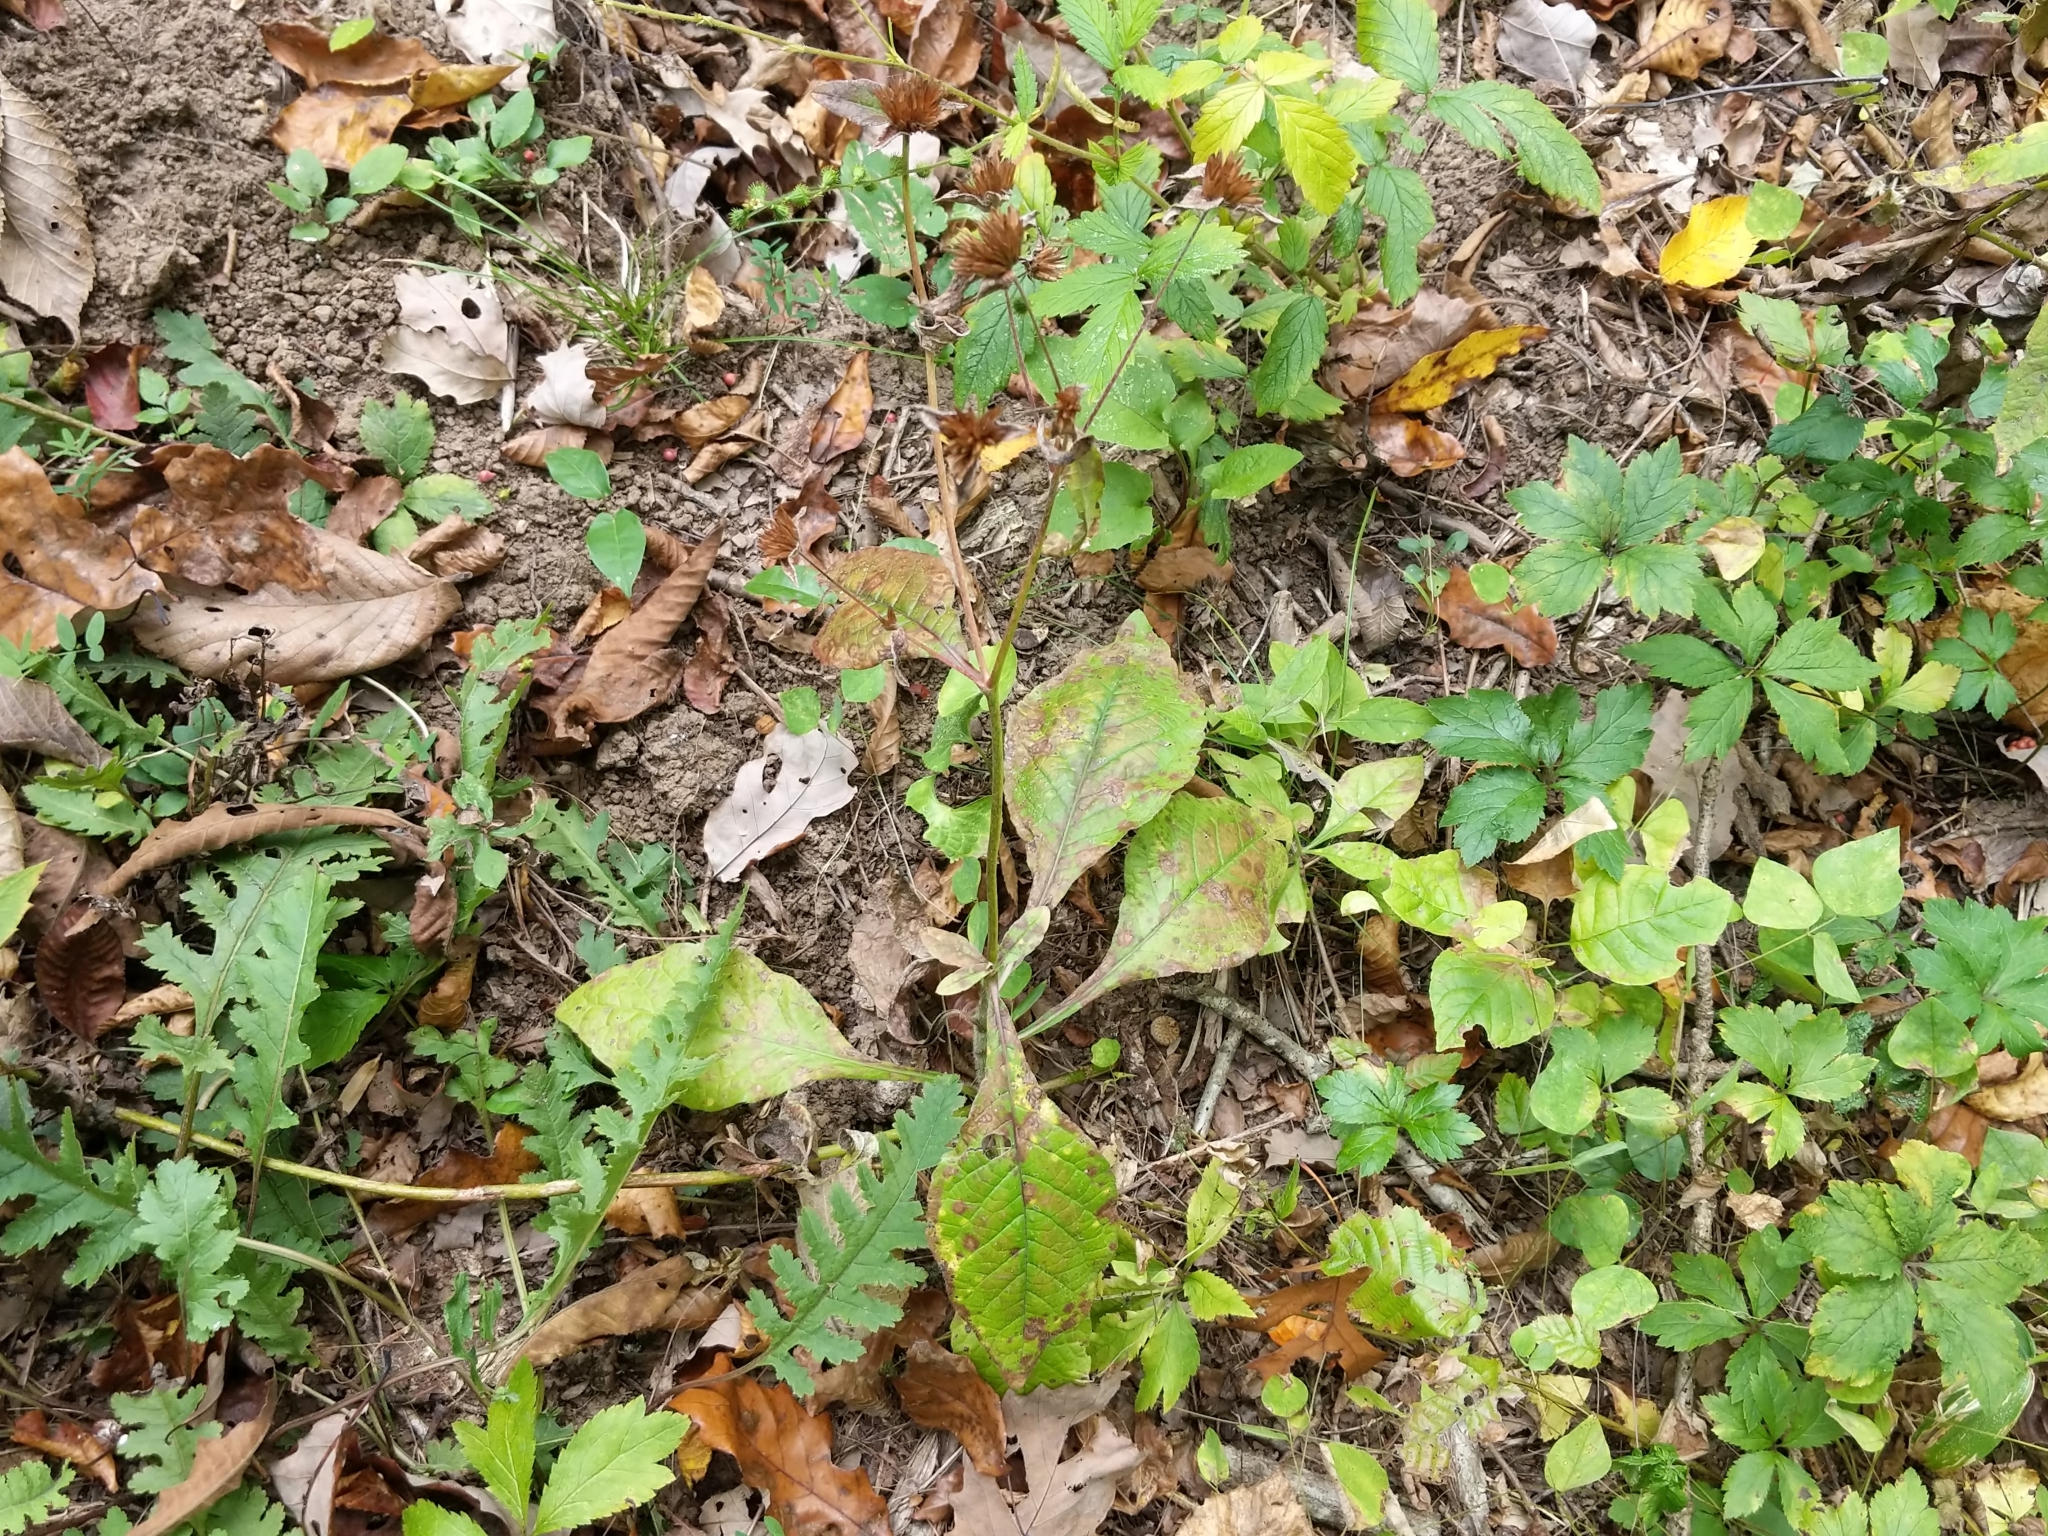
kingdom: Plantae
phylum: Tracheophyta
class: Magnoliopsida
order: Asterales
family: Asteraceae
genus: Elephantopus
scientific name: Elephantopus carolinianus
